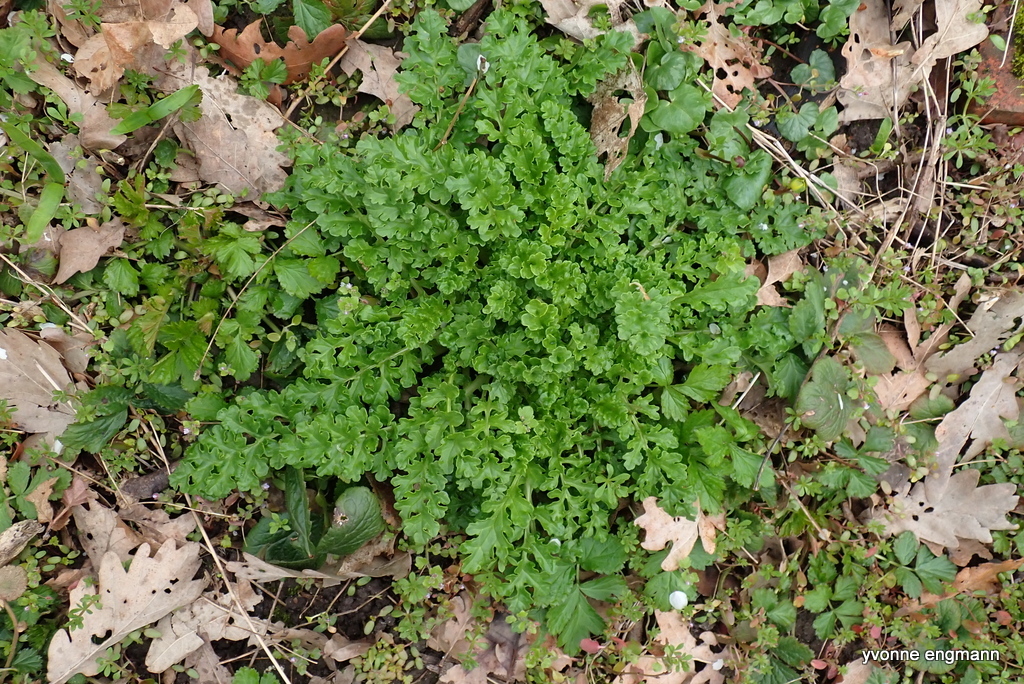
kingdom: Plantae
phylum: Tracheophyta
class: Magnoliopsida
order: Asterales
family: Asteraceae
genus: Jacobaea
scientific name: Jacobaea vulgaris
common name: Stinking willie
